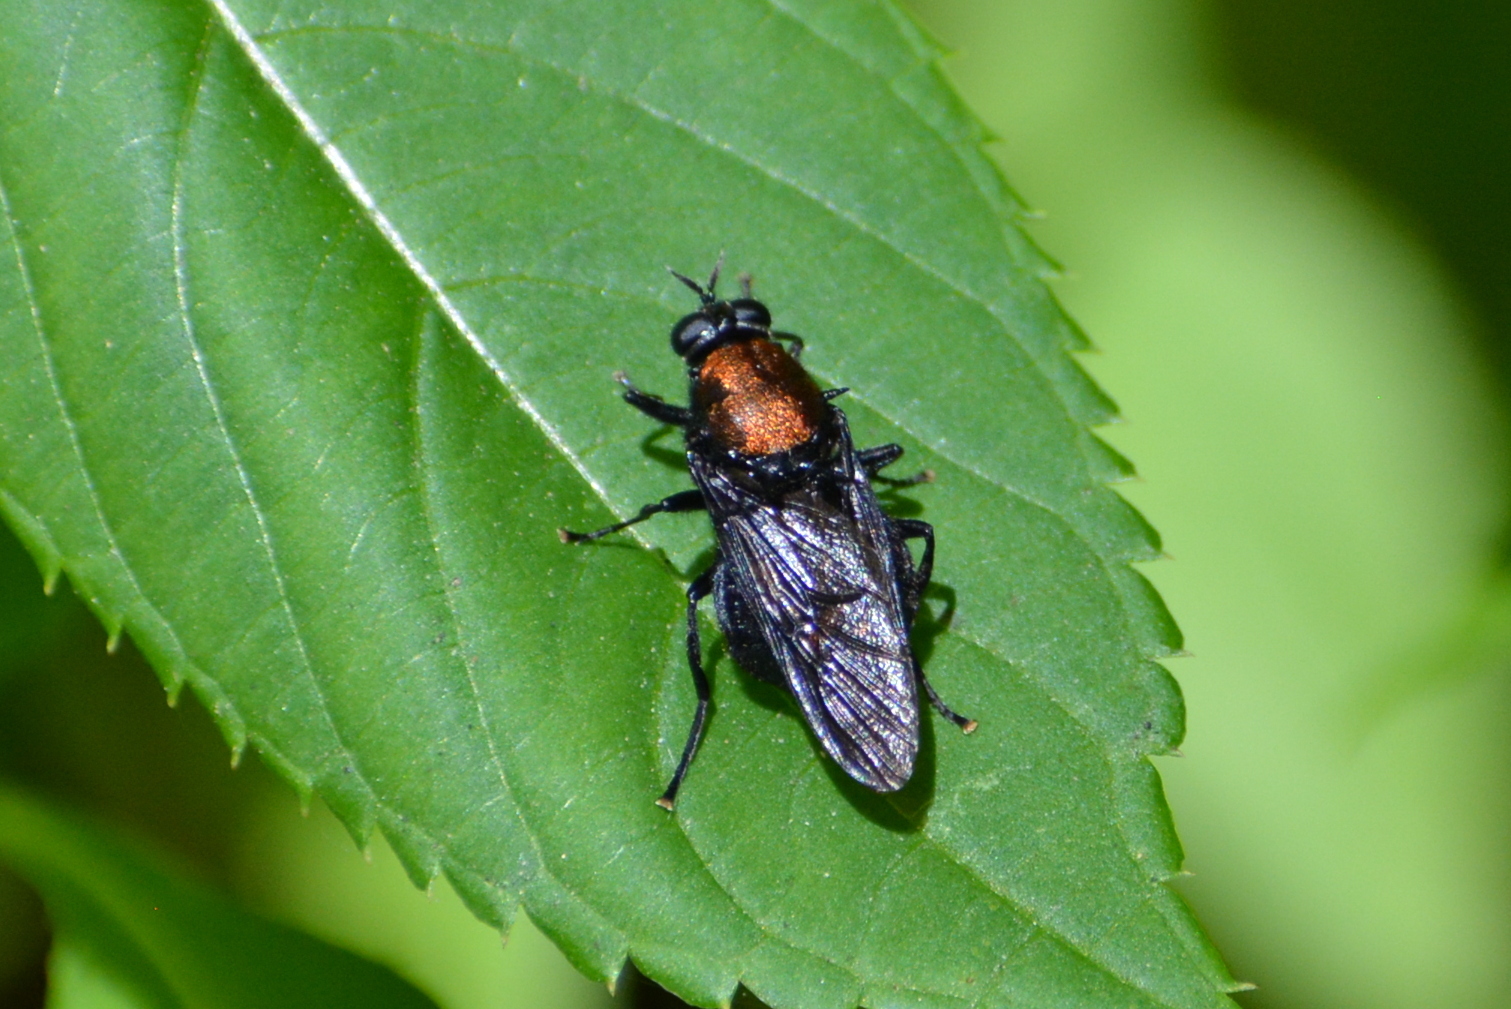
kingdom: Animalia
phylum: Arthropoda
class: Insecta
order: Diptera
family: Stratiomyidae
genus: Clitellaria
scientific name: Clitellaria ephippium
